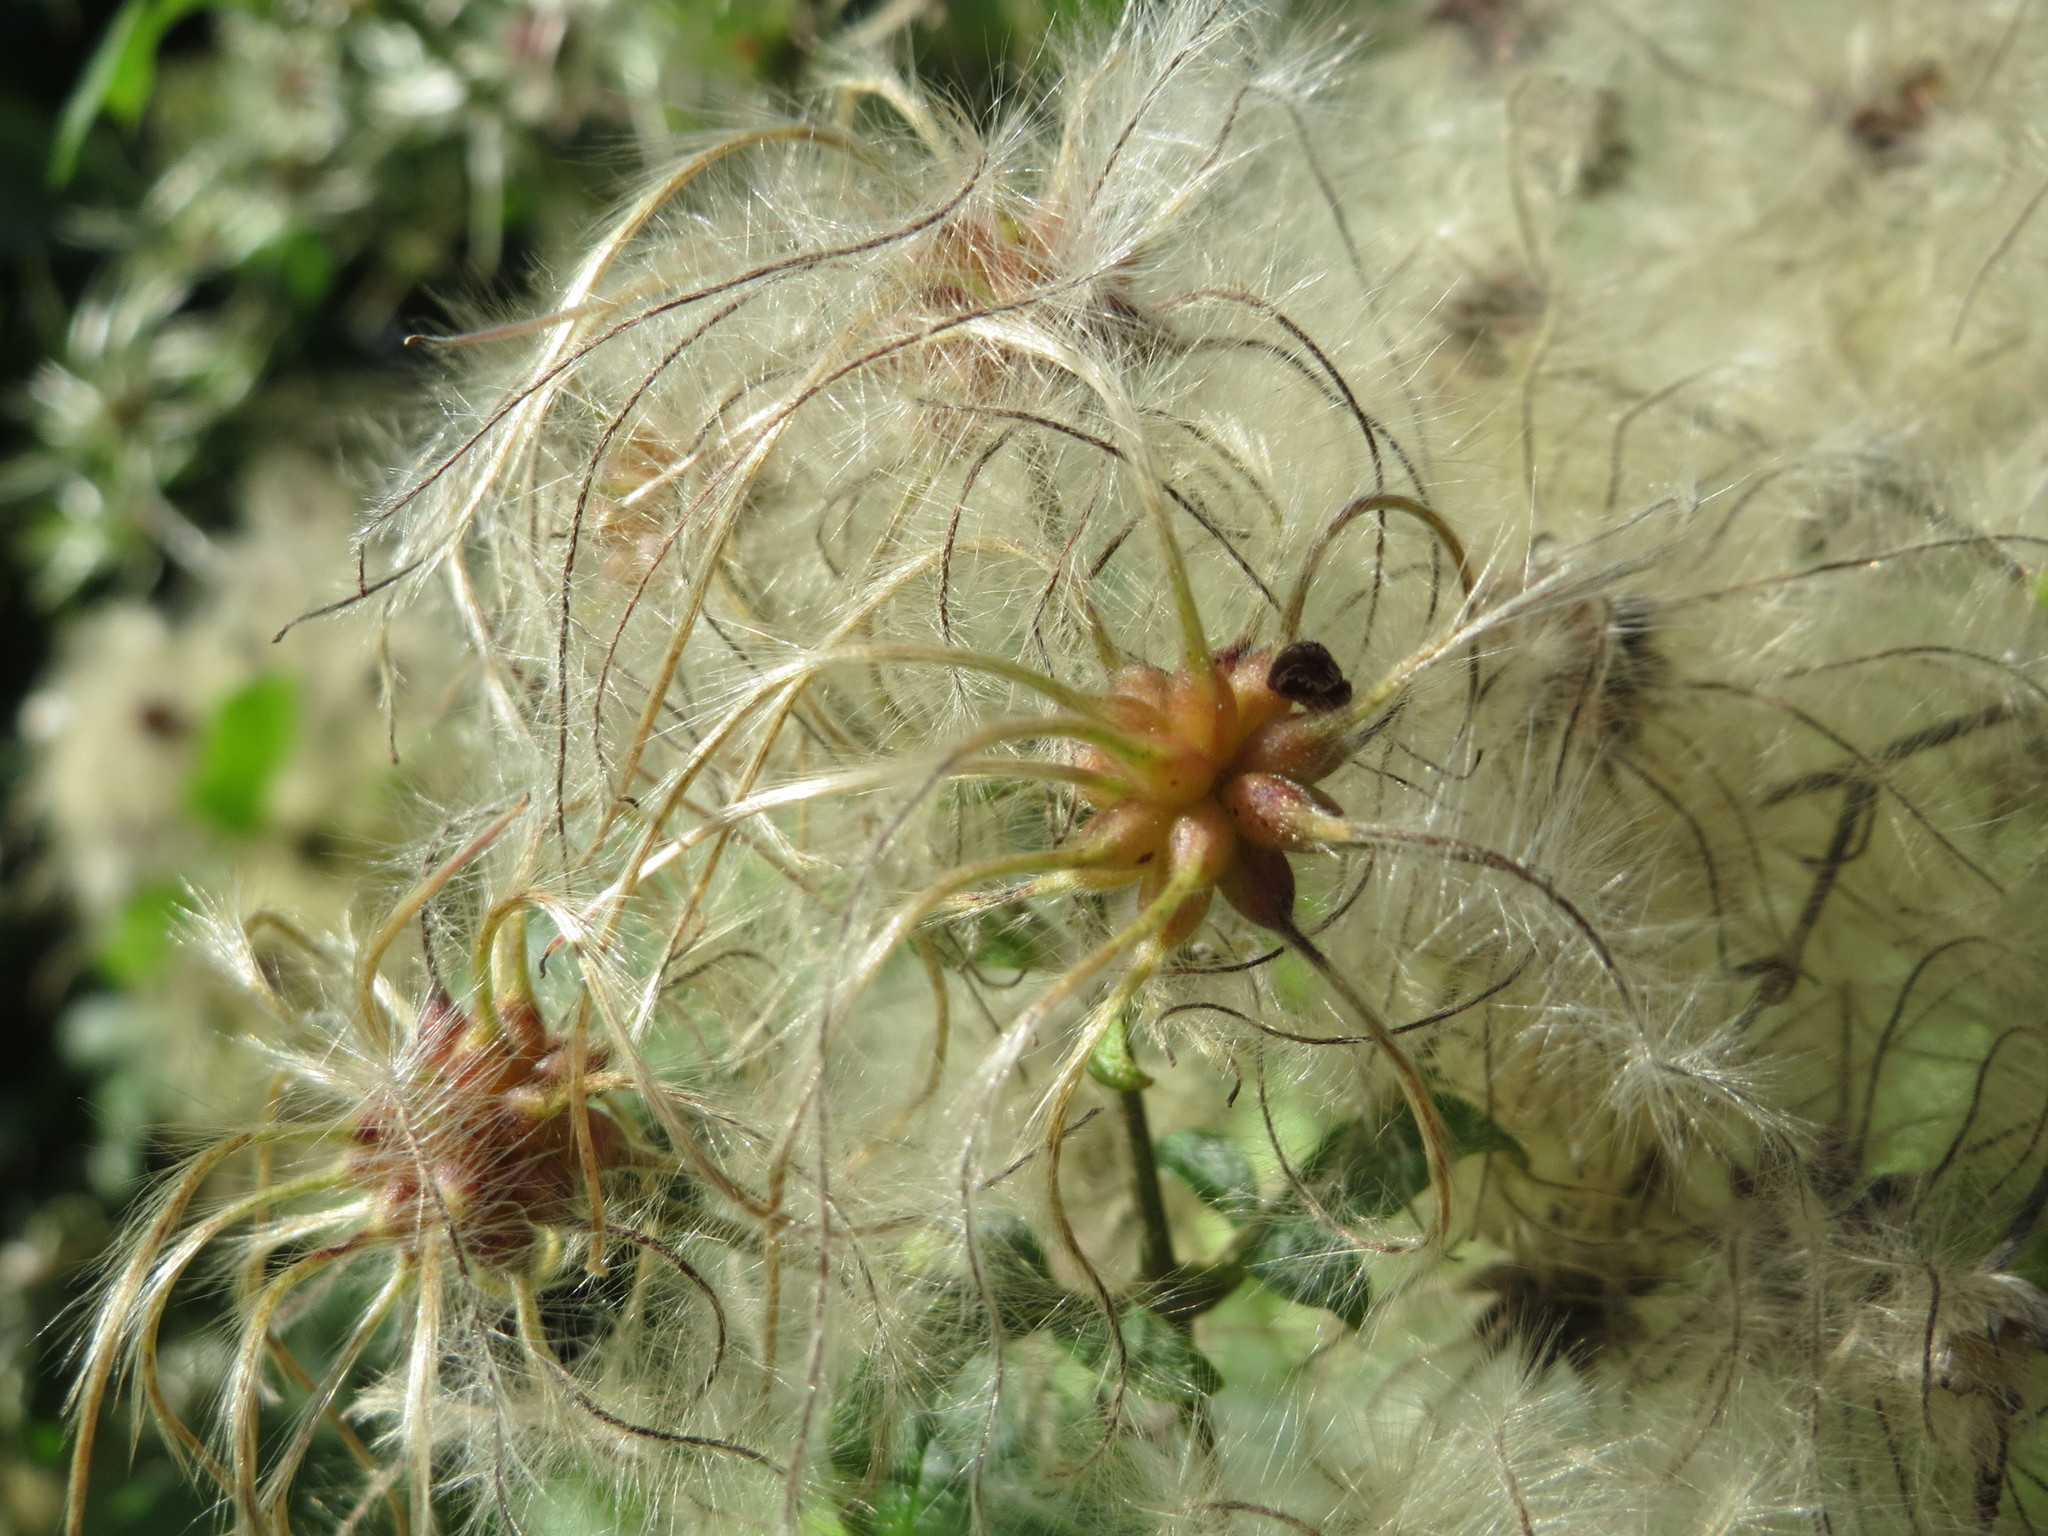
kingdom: Plantae
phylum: Tracheophyta
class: Magnoliopsida
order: Ranunculales
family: Ranunculaceae
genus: Clematis
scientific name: Clematis vitalba
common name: Evergreen clematis
